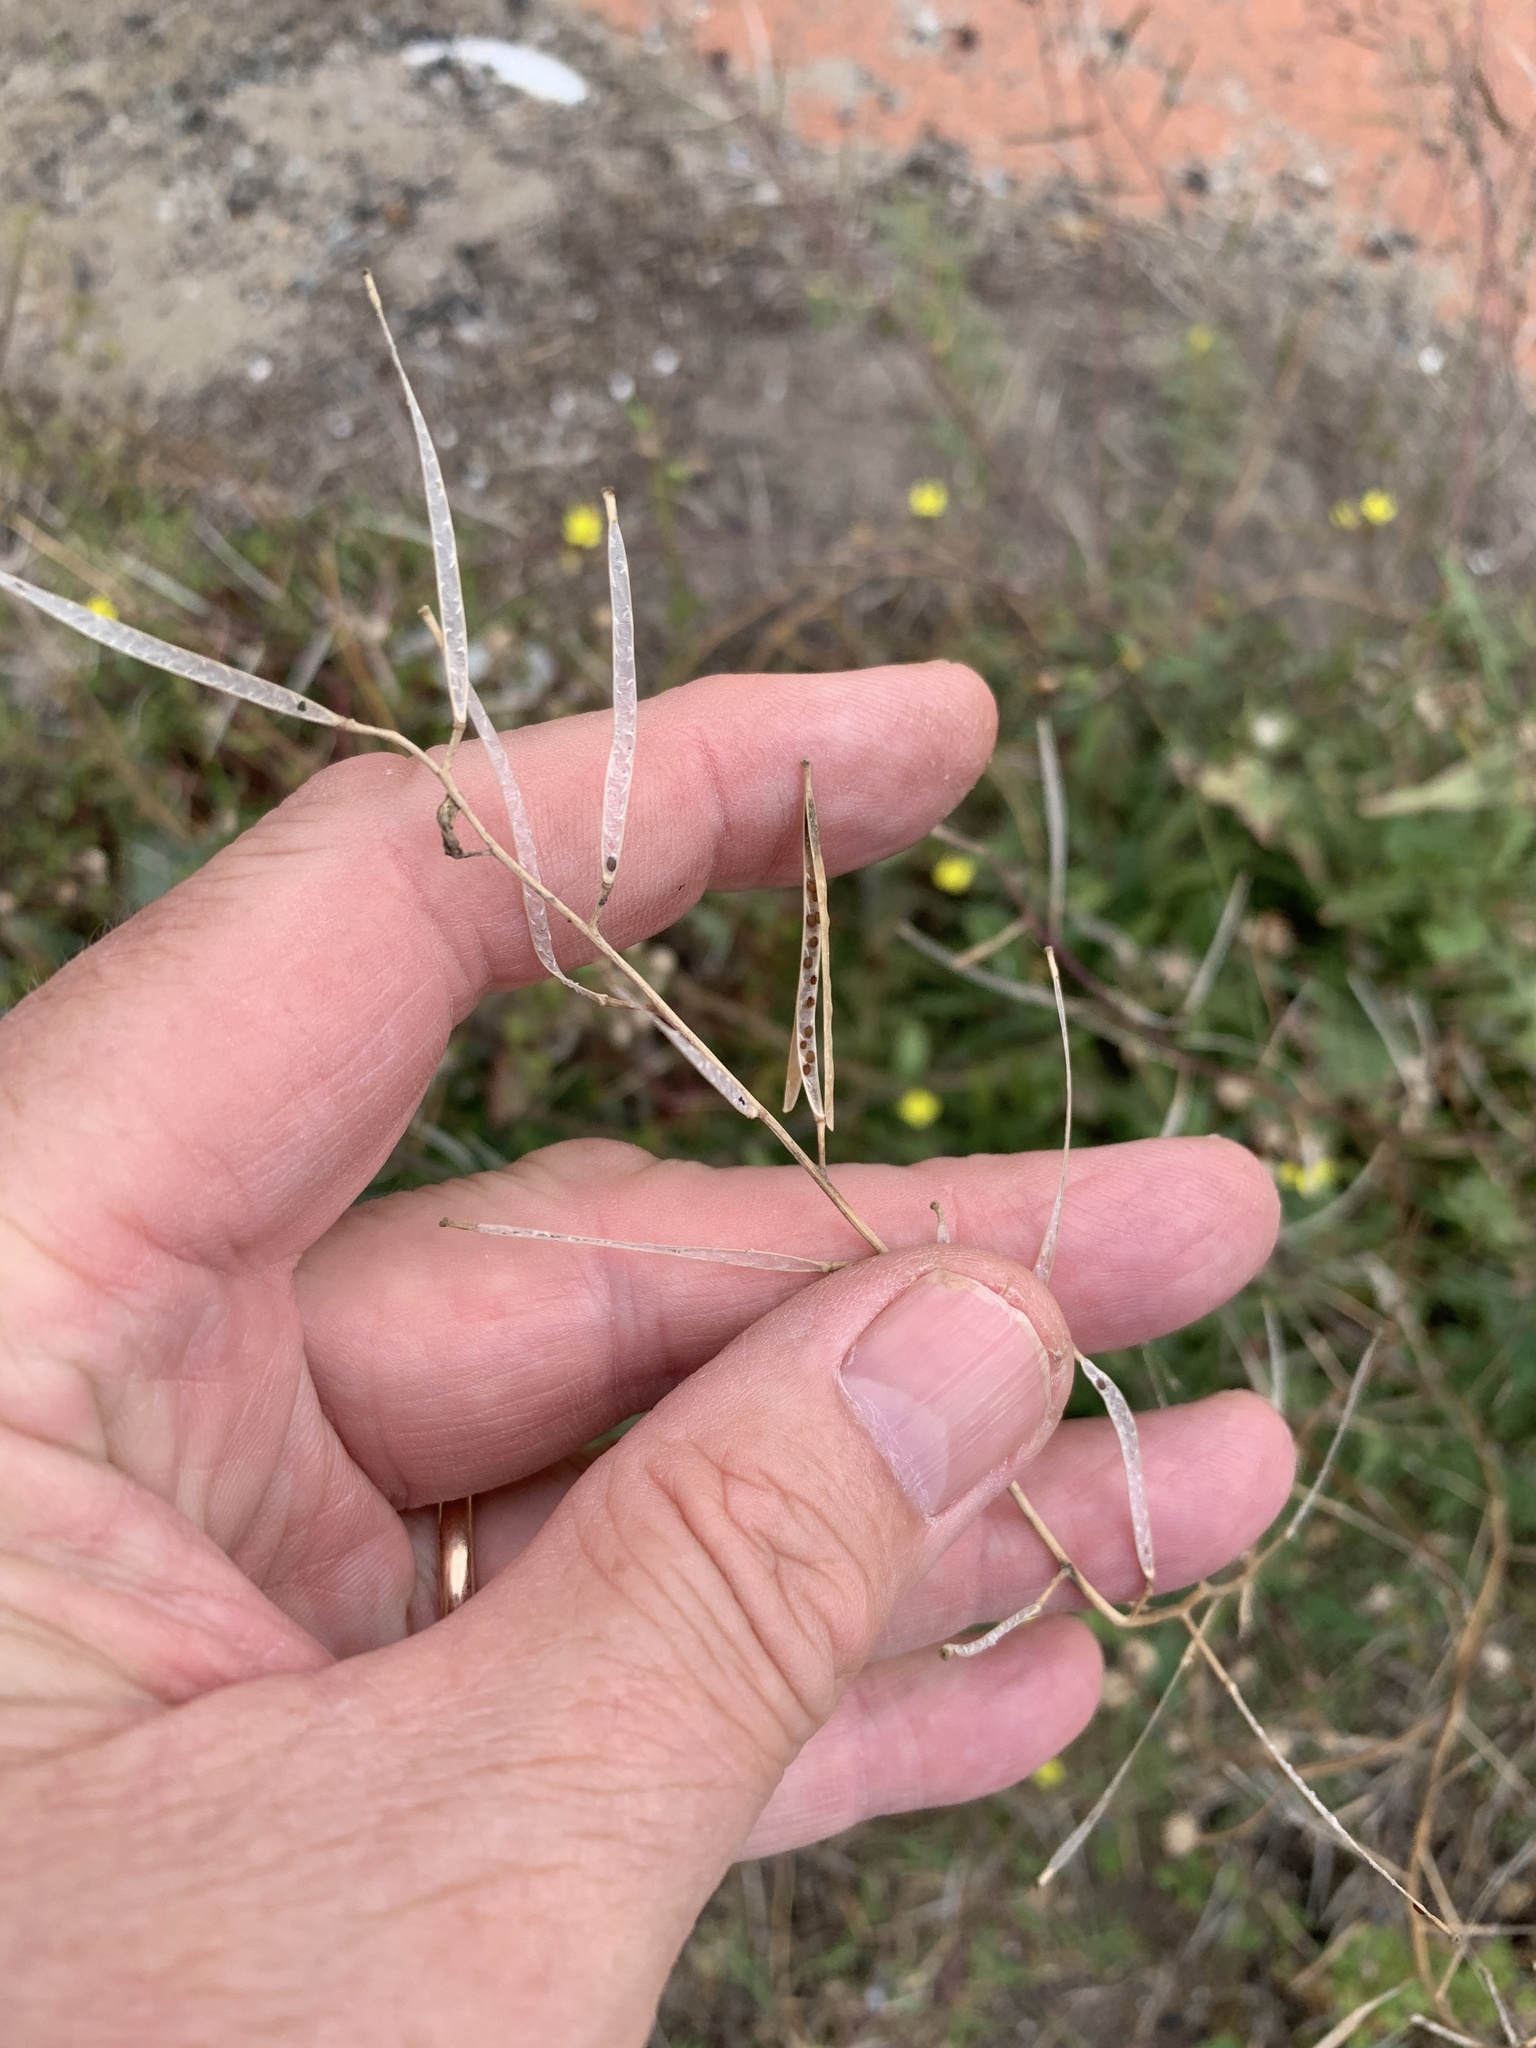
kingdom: Plantae
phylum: Tracheophyta
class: Magnoliopsida
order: Brassicales
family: Brassicaceae
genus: Diplotaxis
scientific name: Diplotaxis muralis
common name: Annual wall-rocket
